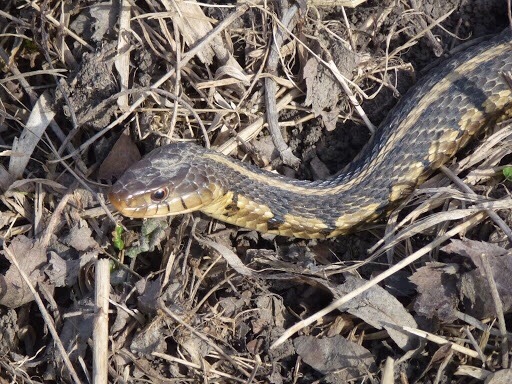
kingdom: Animalia
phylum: Chordata
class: Squamata
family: Colubridae
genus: Thamnophis
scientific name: Thamnophis sirtalis
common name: Common garter snake
